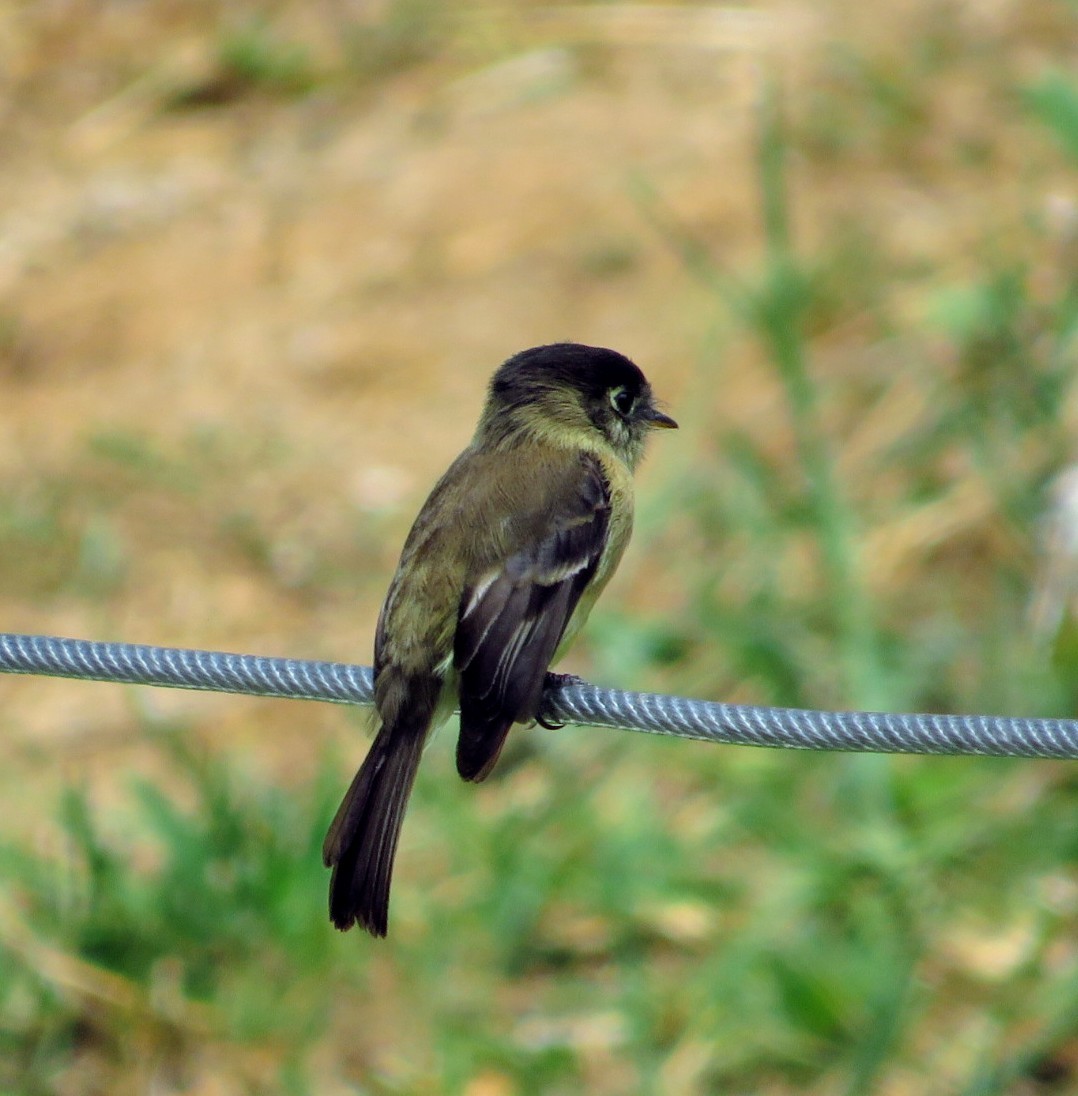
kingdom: Animalia
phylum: Chordata
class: Aves
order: Passeriformes
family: Tyrannidae
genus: Empidonax
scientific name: Empidonax atriceps
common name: Black-capped flycatcher
